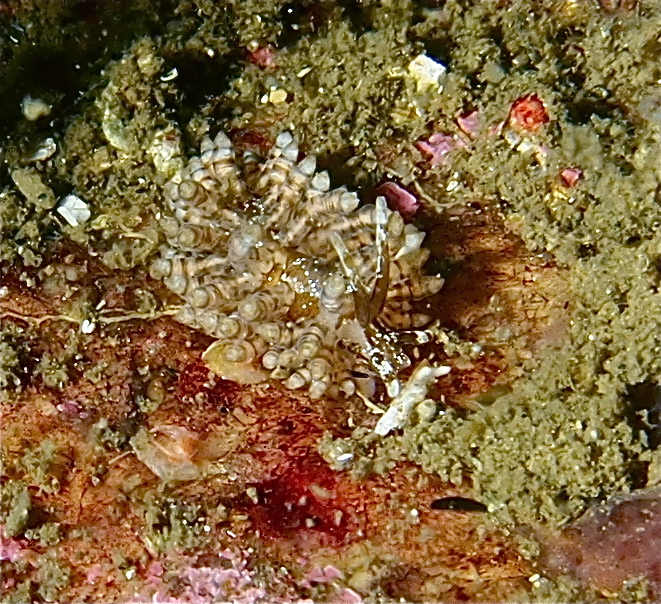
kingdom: Animalia
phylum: Mollusca
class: Gastropoda
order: Nudibranchia
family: Eubranchidae
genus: Eubranchus
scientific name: Eubranchus vittatus
